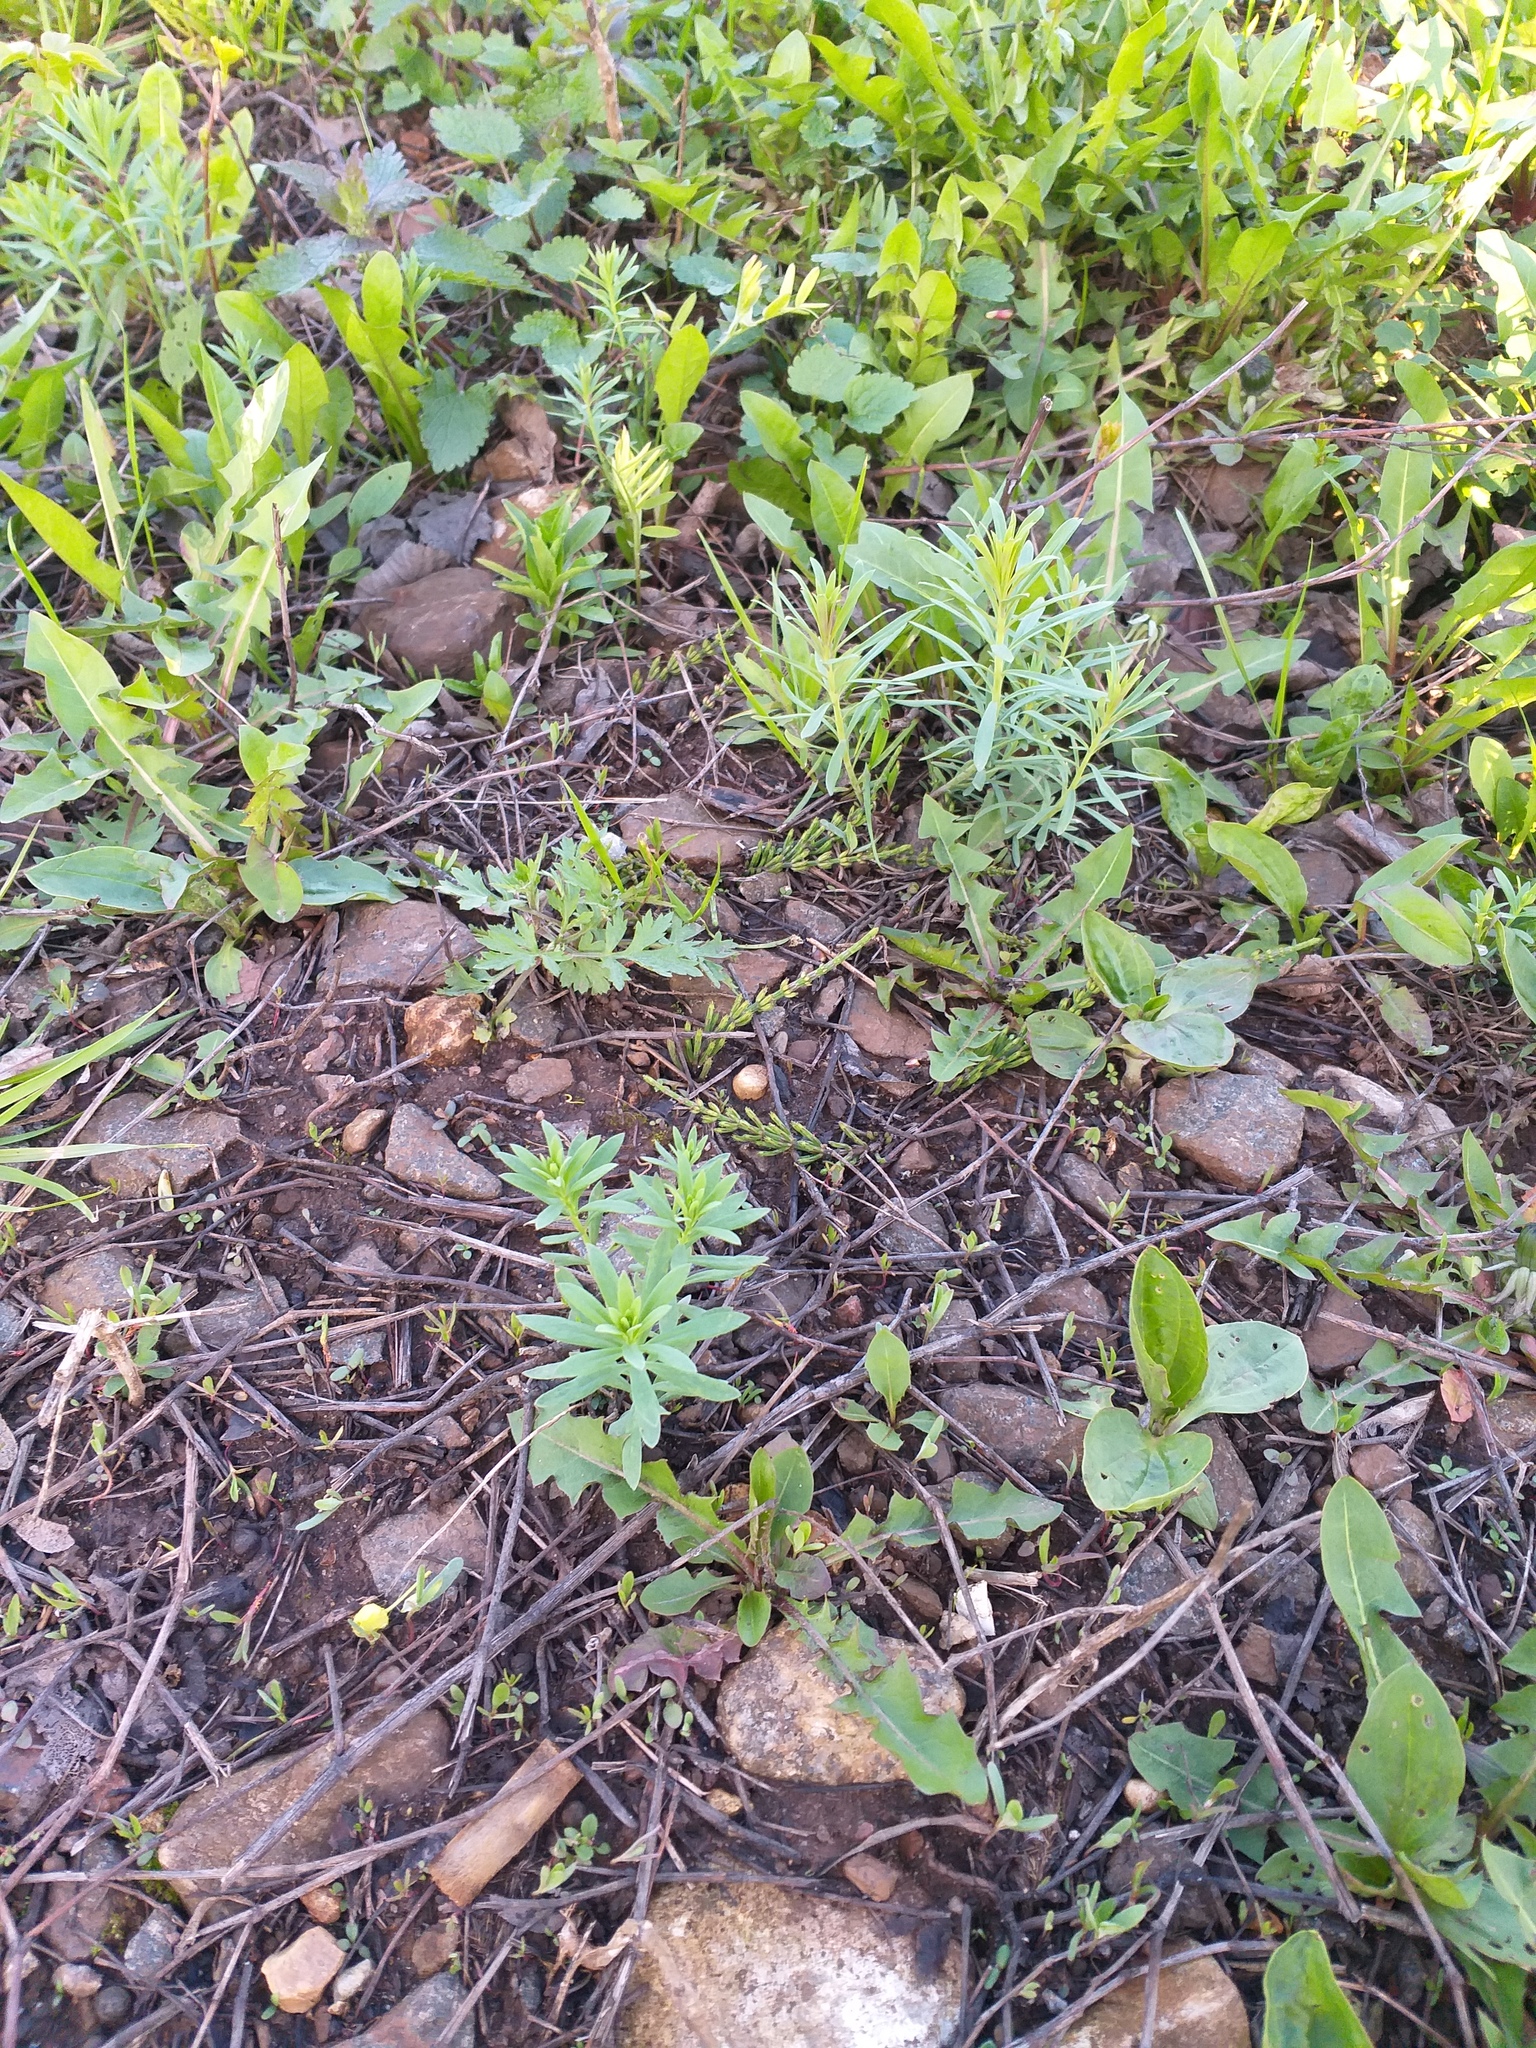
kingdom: Plantae
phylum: Tracheophyta
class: Magnoliopsida
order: Lamiales
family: Plantaginaceae
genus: Linaria
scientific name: Linaria vulgaris
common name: Butter and eggs
